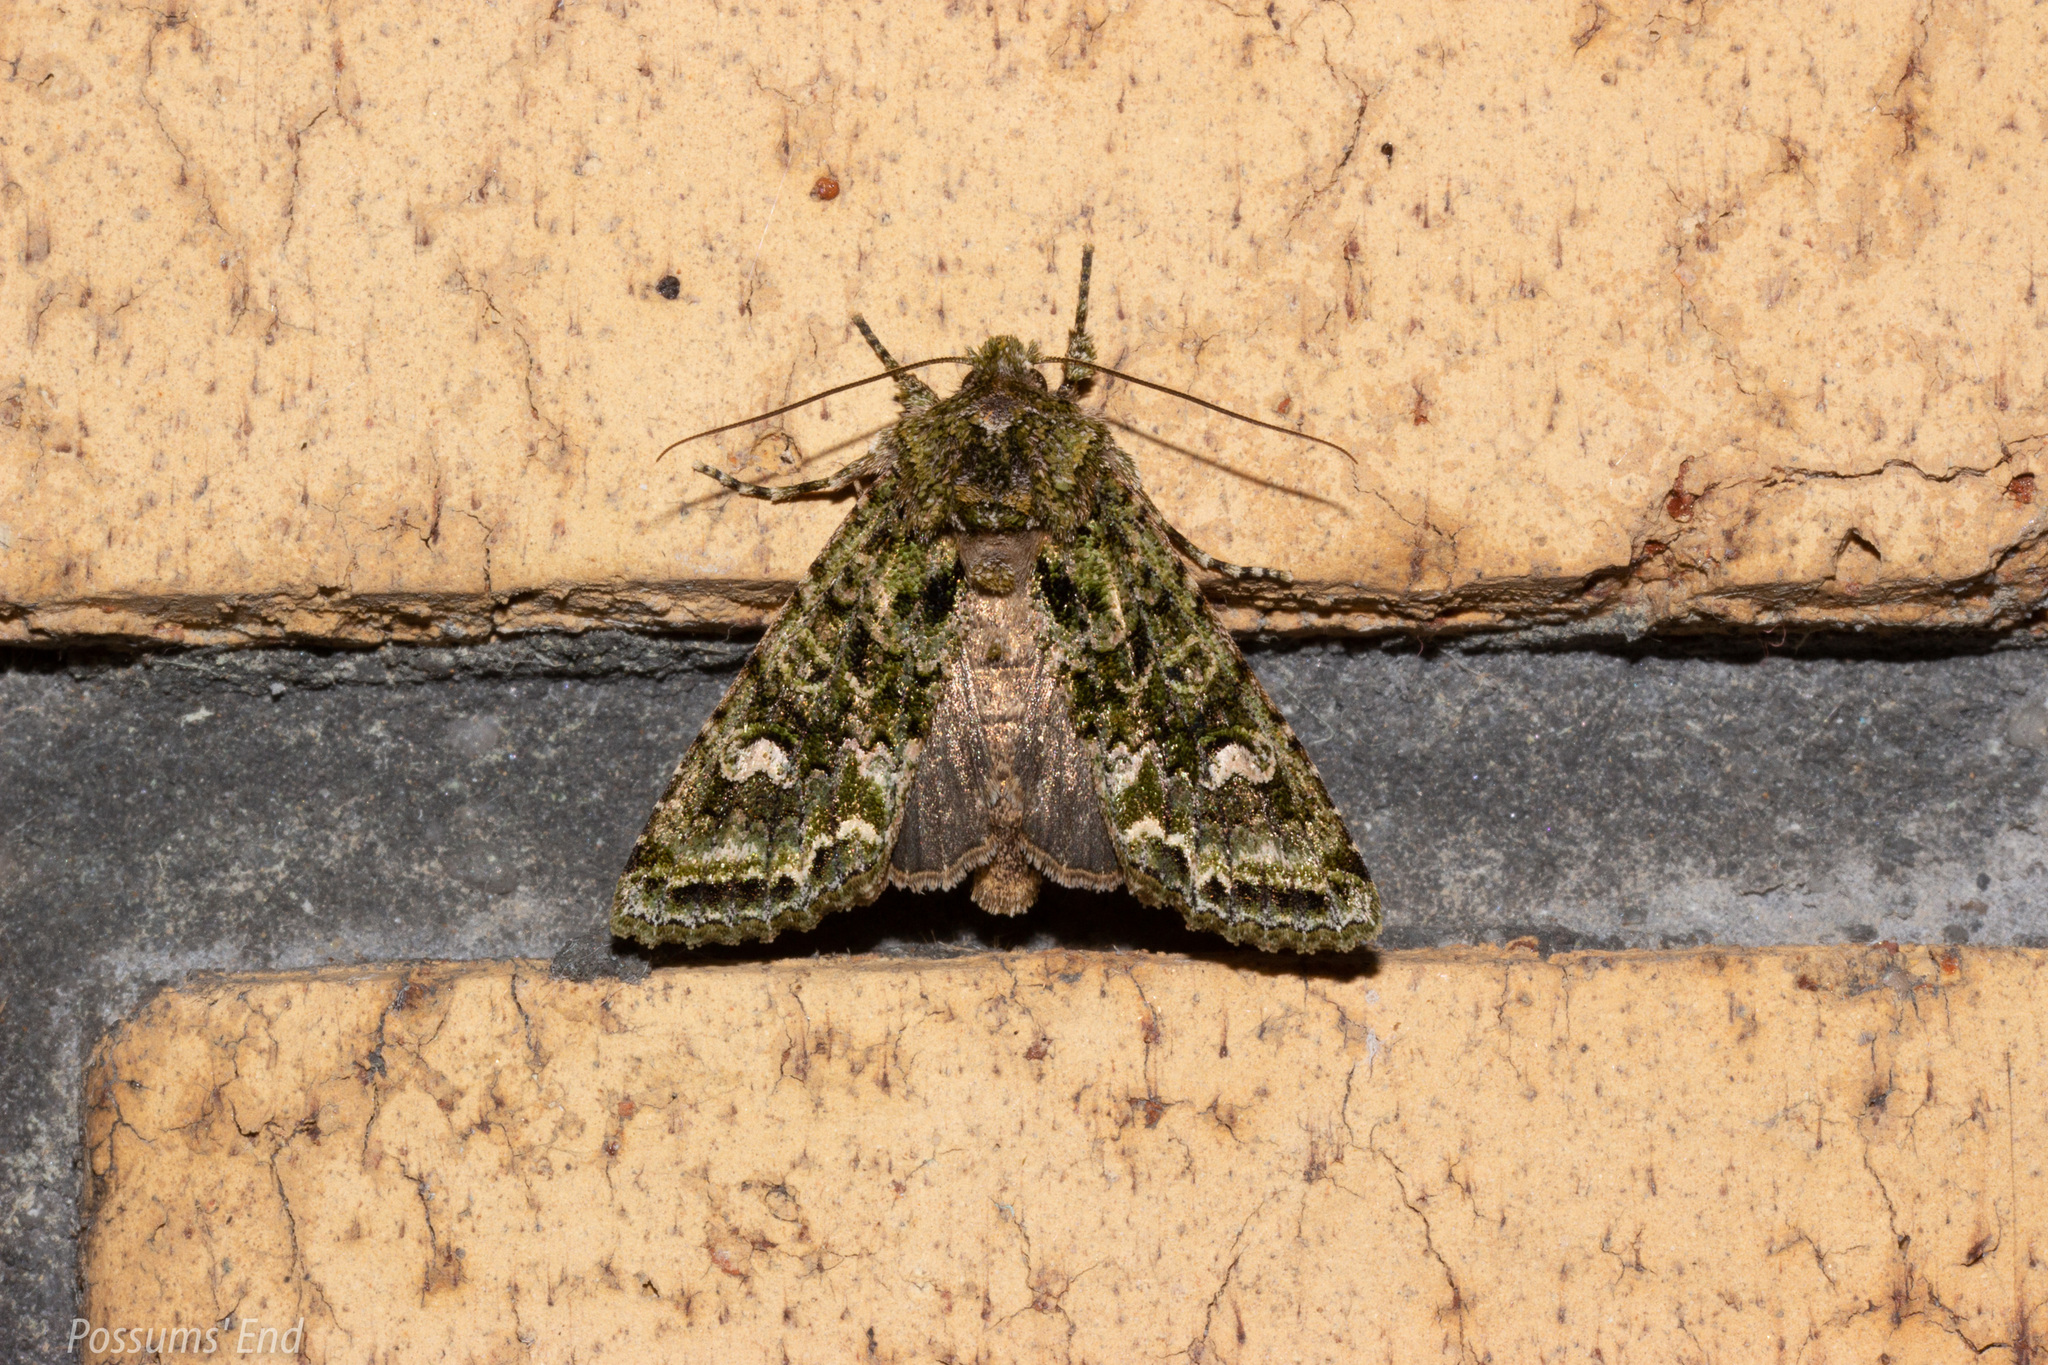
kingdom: Animalia
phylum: Arthropoda
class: Insecta
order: Lepidoptera
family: Noctuidae
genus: Ichneutica
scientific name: Ichneutica
